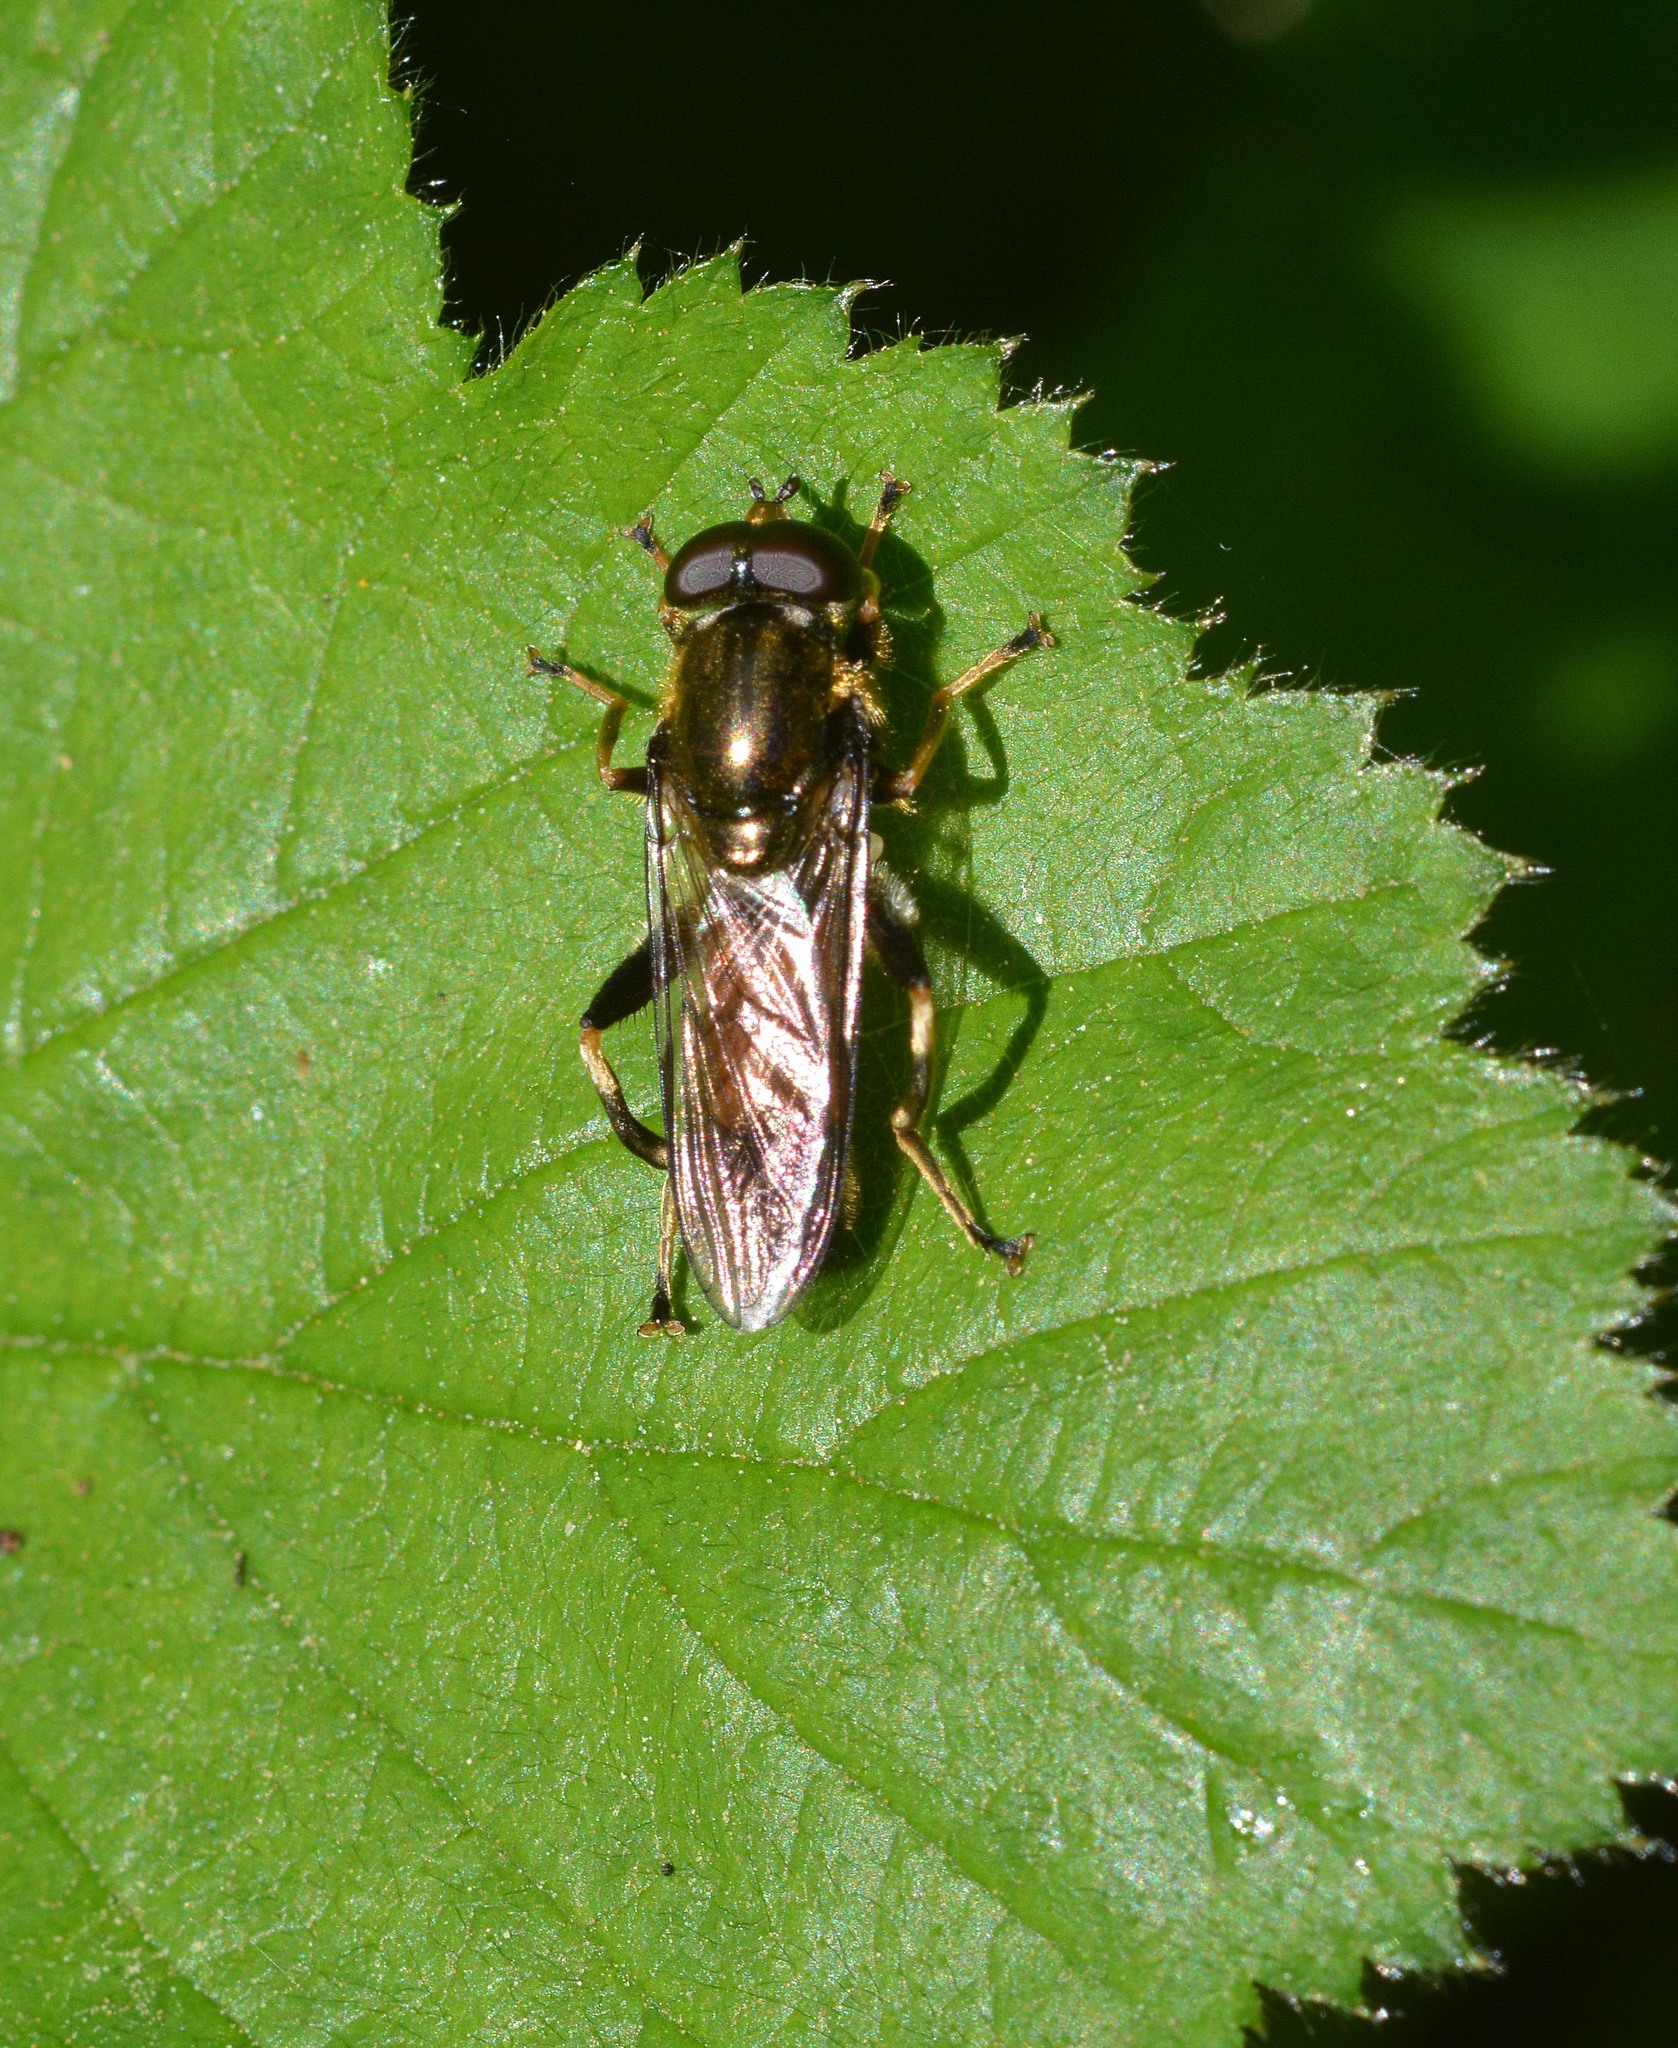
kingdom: Animalia
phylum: Arthropoda
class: Insecta
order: Diptera
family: Syrphidae
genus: Xylota
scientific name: Xylota segnis
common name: Brown-toed forest fly
